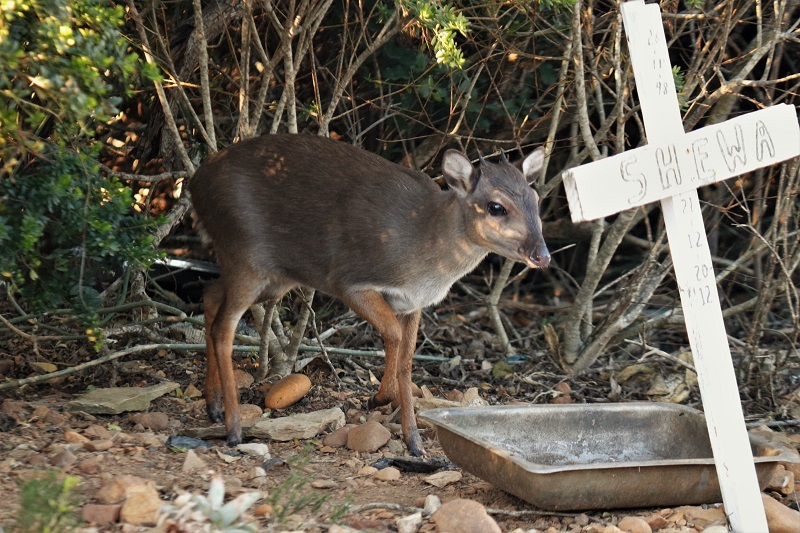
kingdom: Animalia
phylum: Chordata
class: Mammalia
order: Artiodactyla
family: Bovidae
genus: Philantomba
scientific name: Philantomba monticola
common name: Blue duiker
